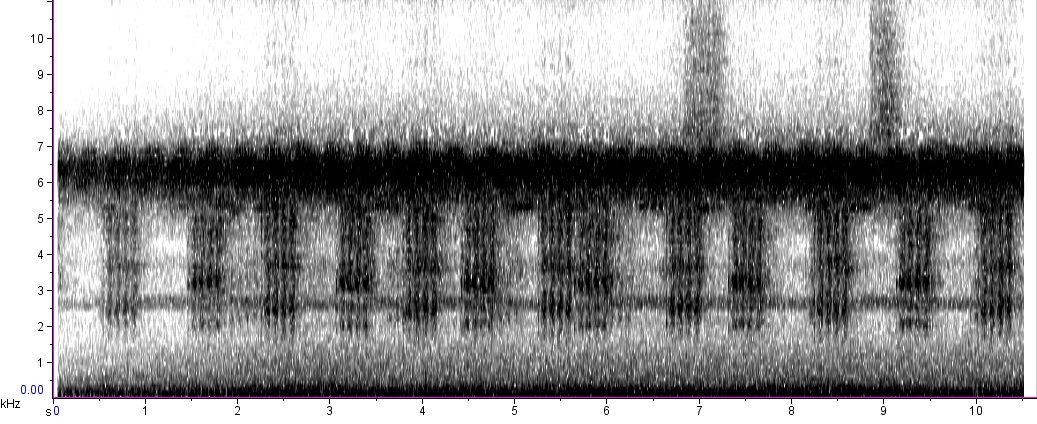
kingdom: Animalia
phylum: Arthropoda
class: Insecta
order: Orthoptera
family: Tettigoniidae
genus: Pterophylla
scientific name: Pterophylla camellifolia
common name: Common true katydid
